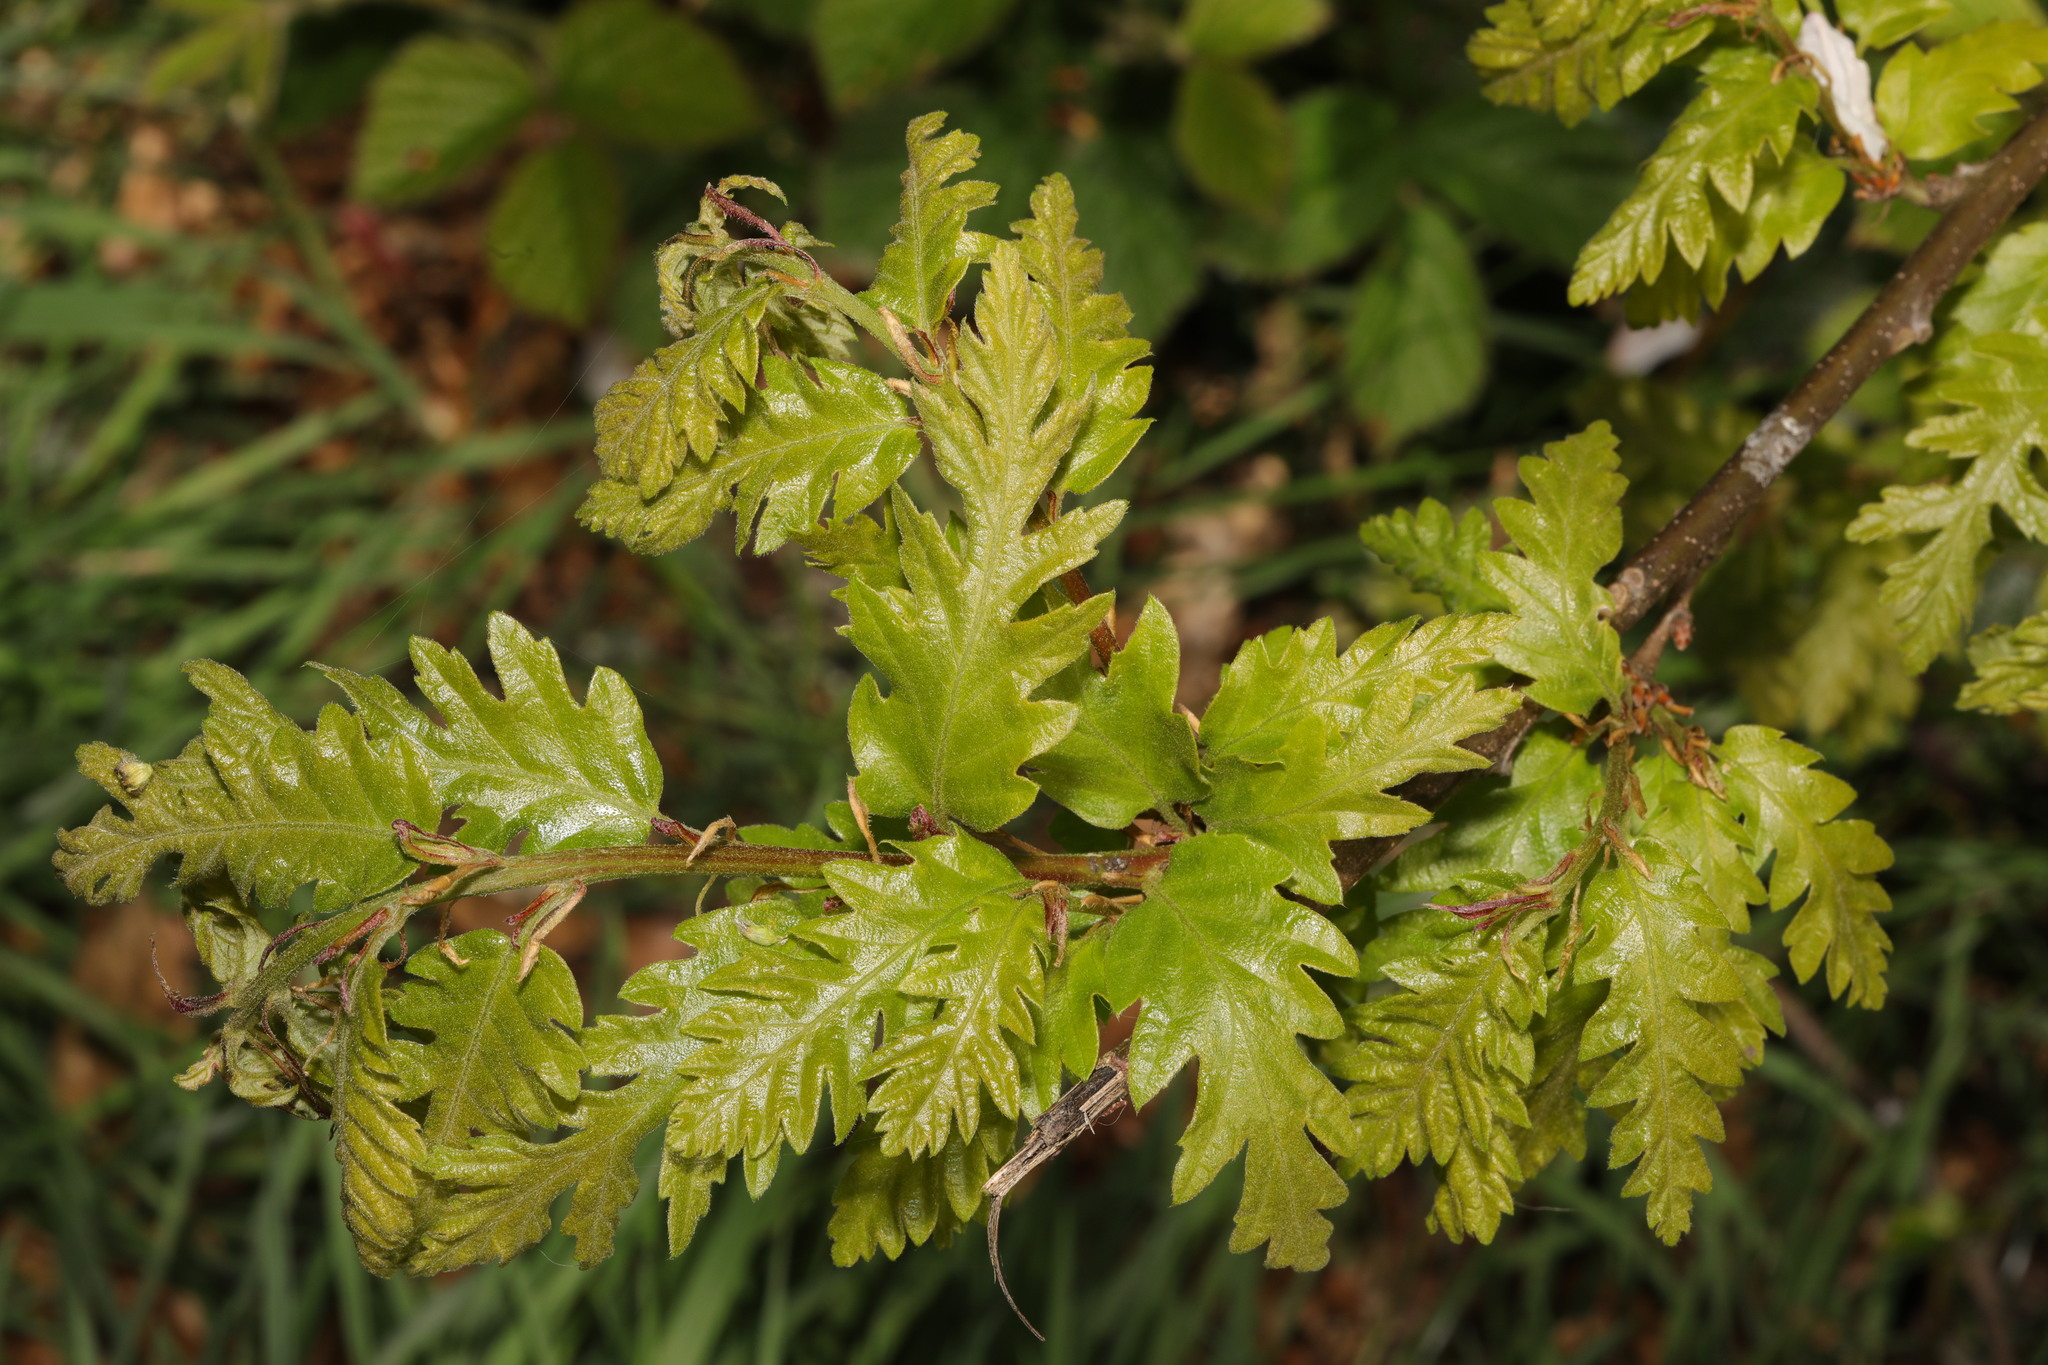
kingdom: Plantae
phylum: Tracheophyta
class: Magnoliopsida
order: Fagales
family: Fagaceae
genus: Quercus
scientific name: Quercus cerris
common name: Turkey oak
